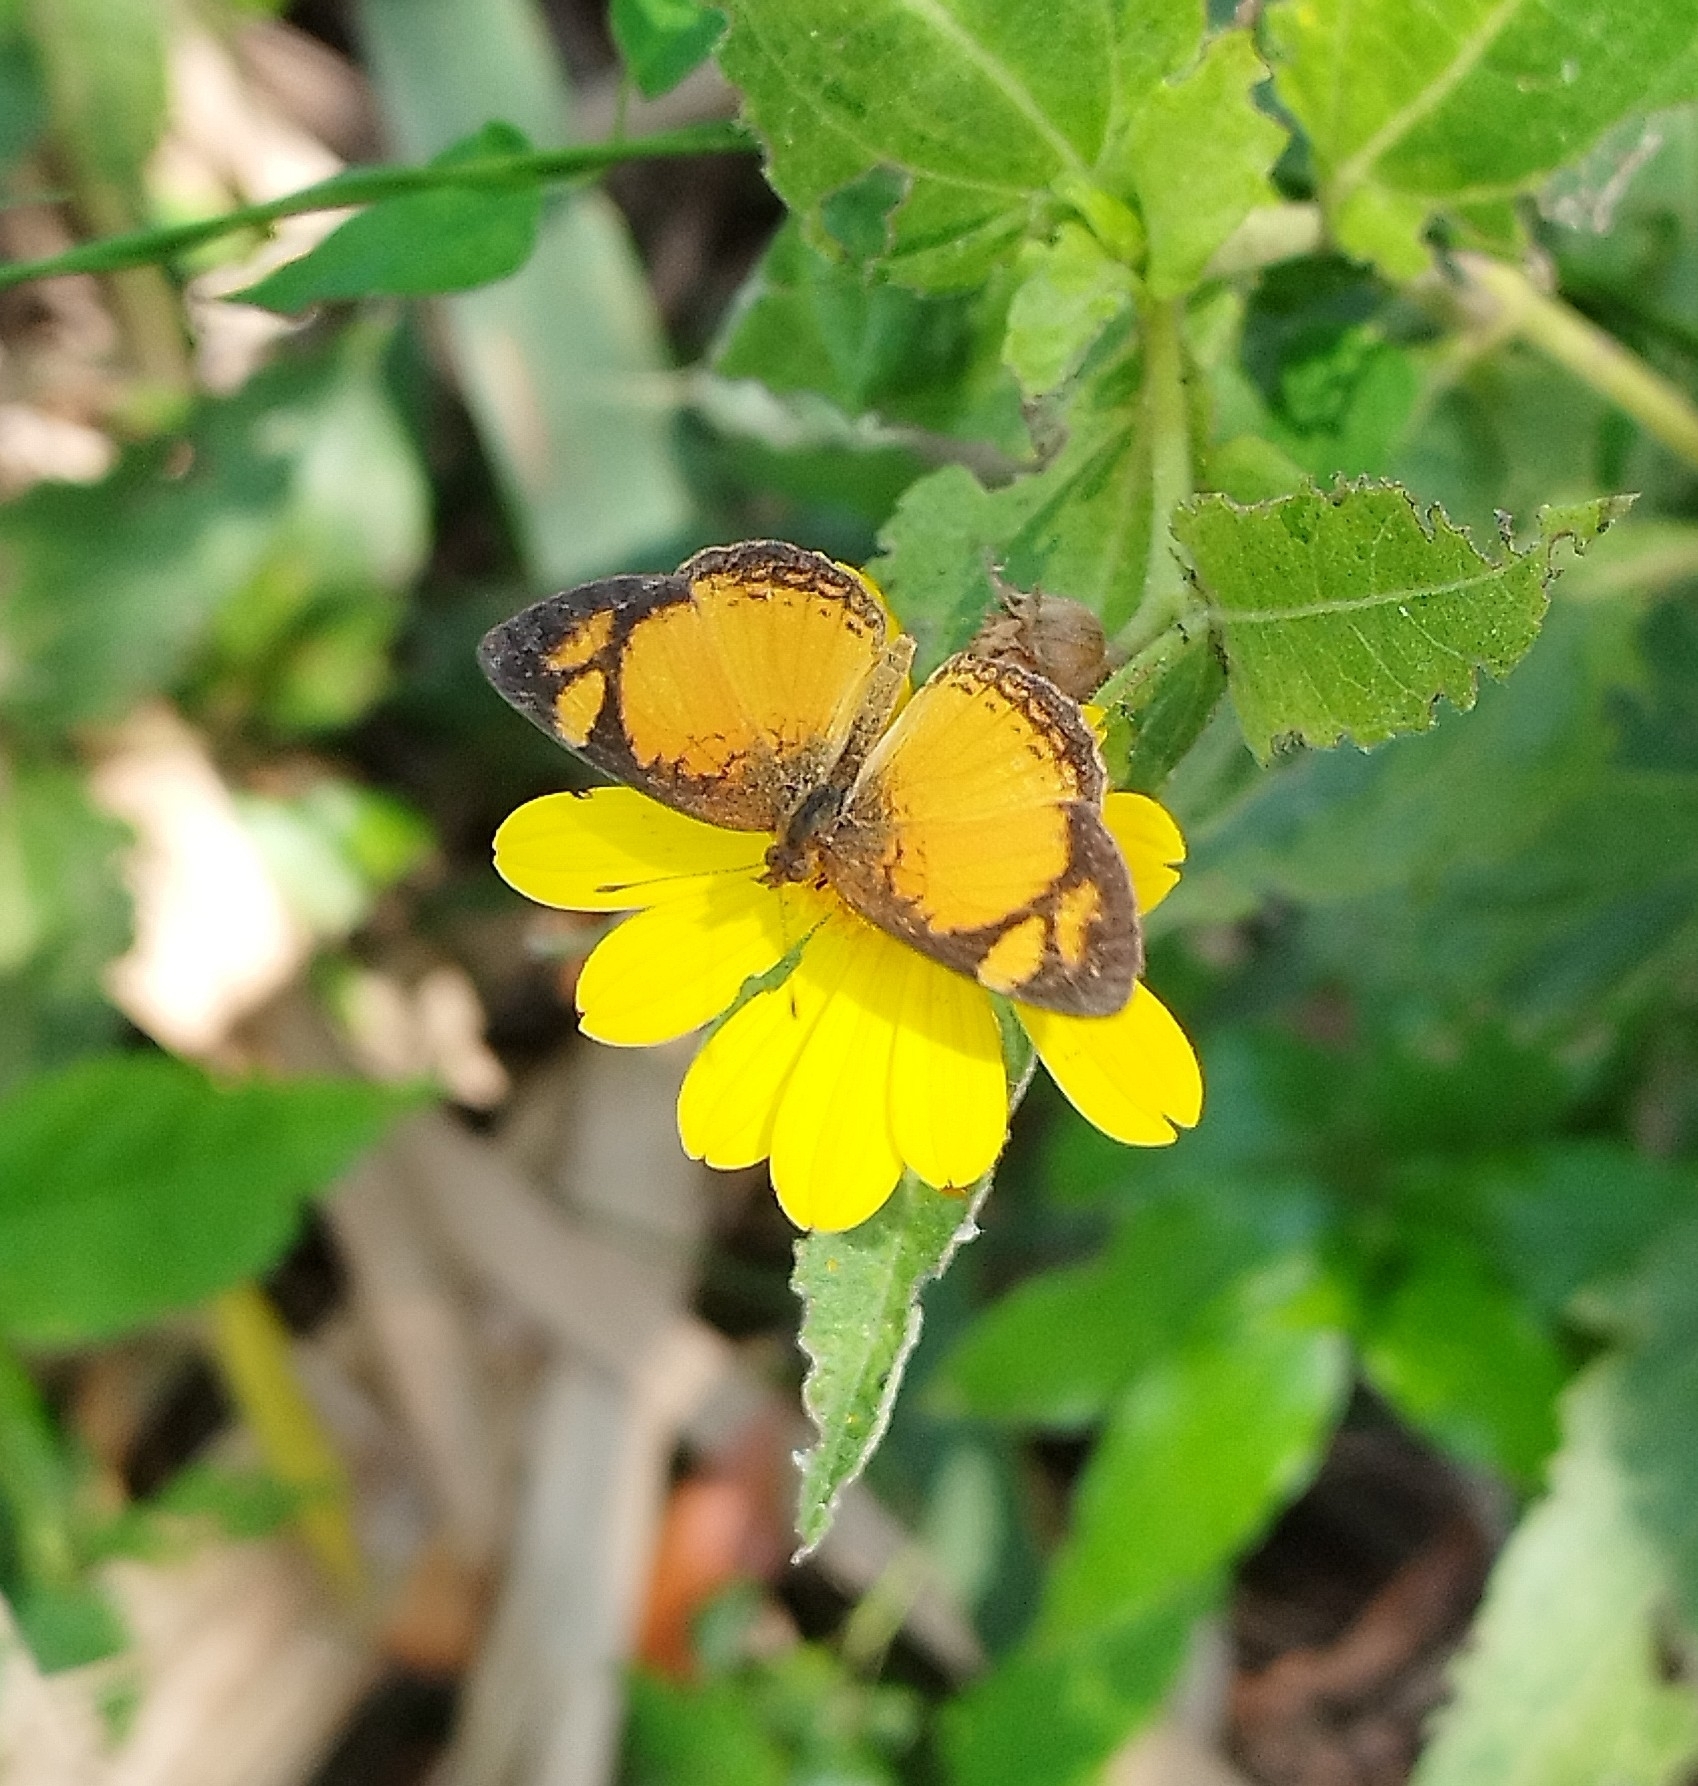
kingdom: Animalia
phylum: Arthropoda
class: Insecta
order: Lepidoptera
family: Nymphalidae
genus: Tegosa
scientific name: Tegosa claudina
